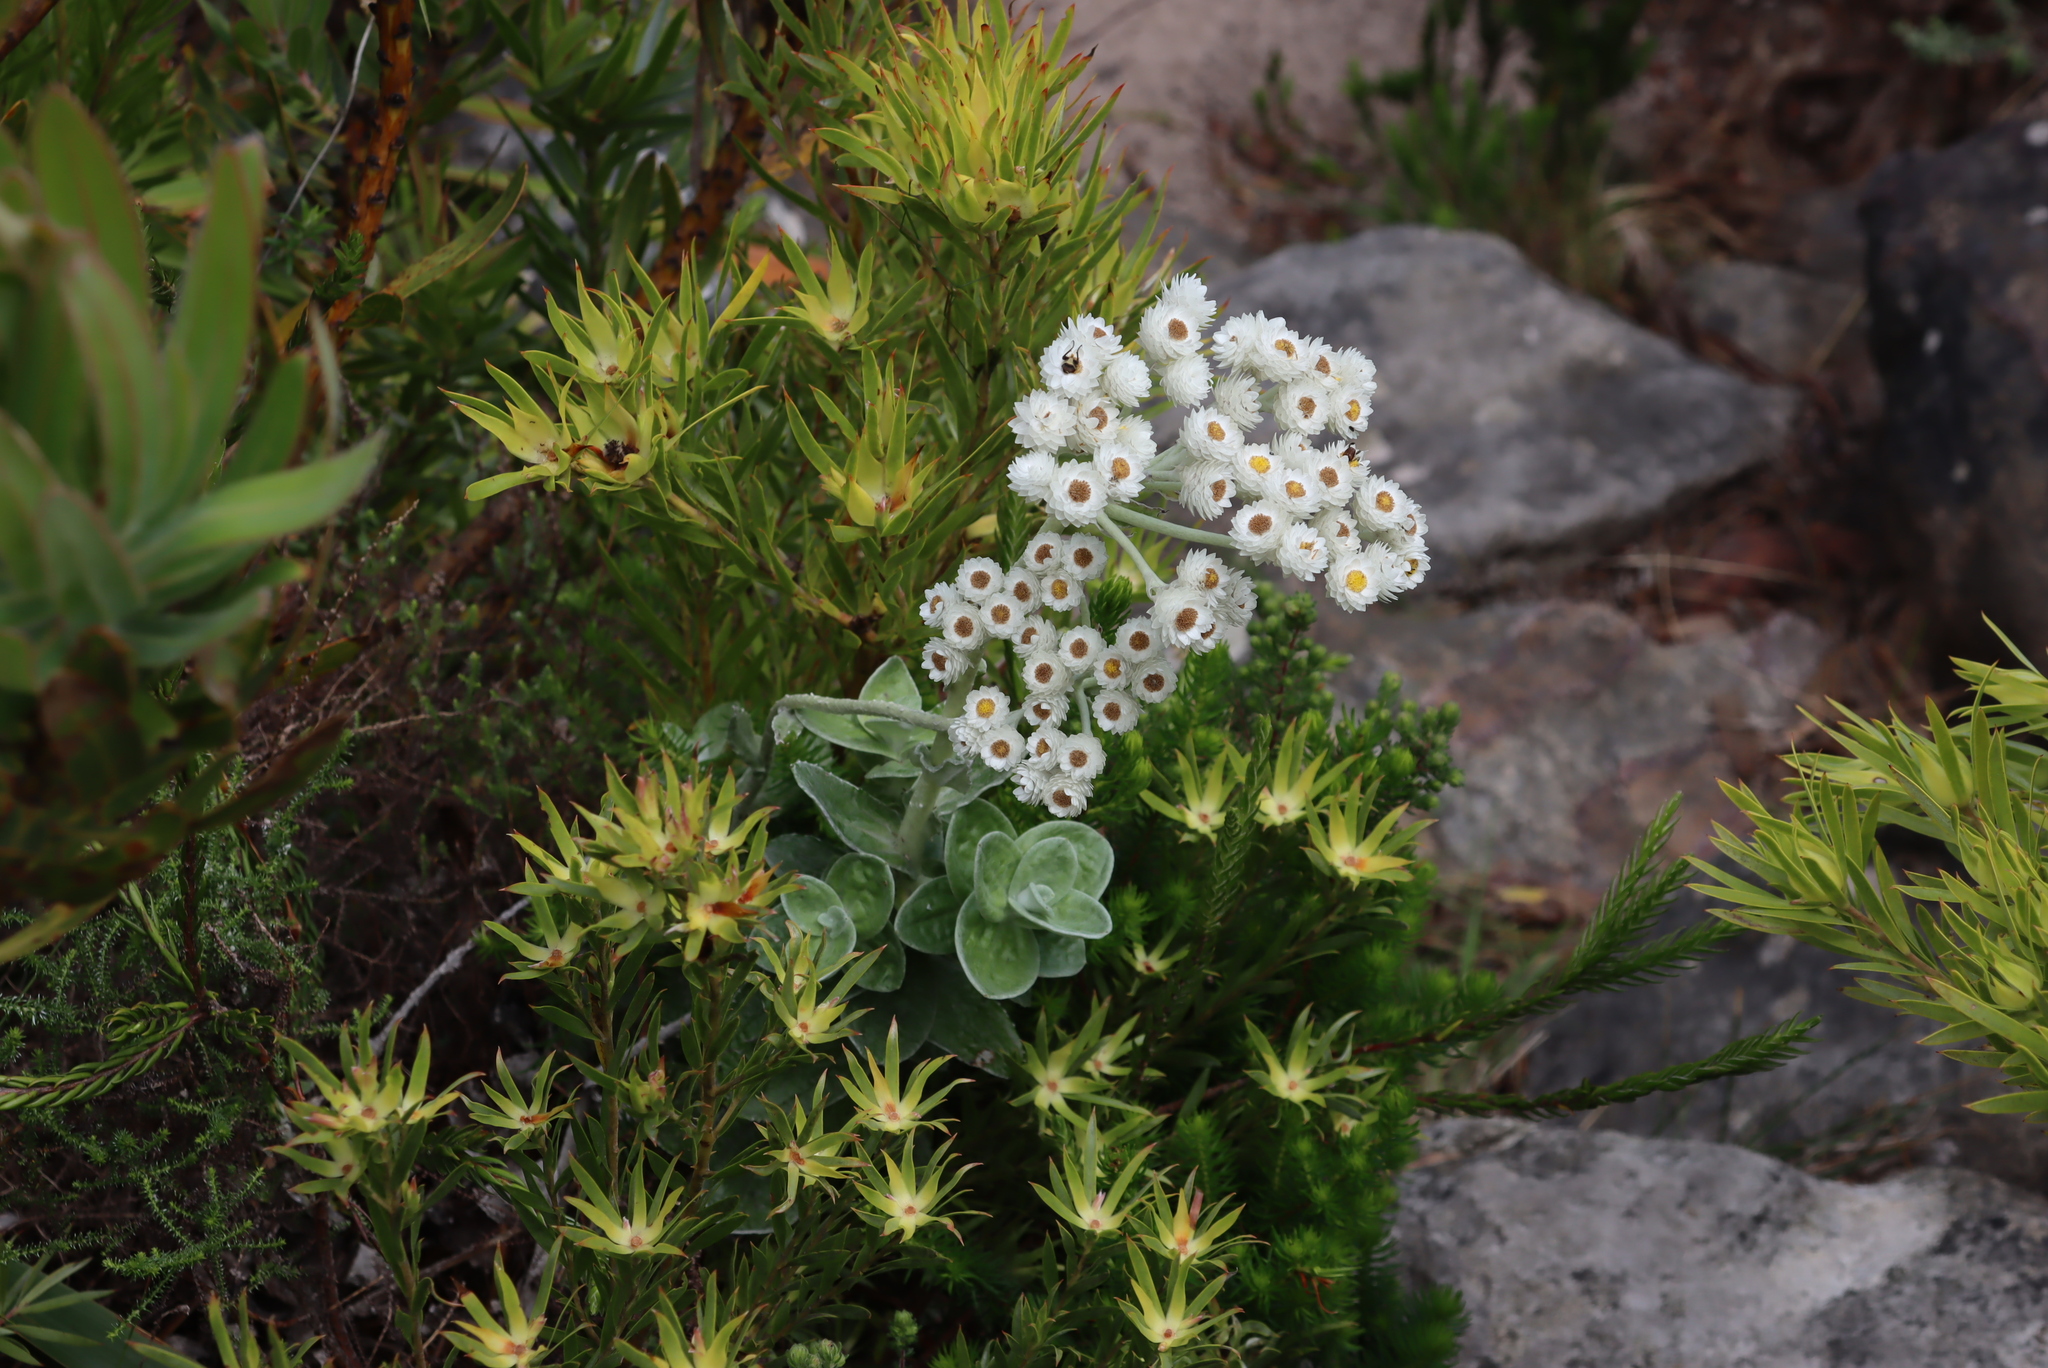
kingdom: Plantae
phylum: Tracheophyta
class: Magnoliopsida
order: Asterales
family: Asteraceae
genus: Helichrysum
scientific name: Helichrysum fruticans
